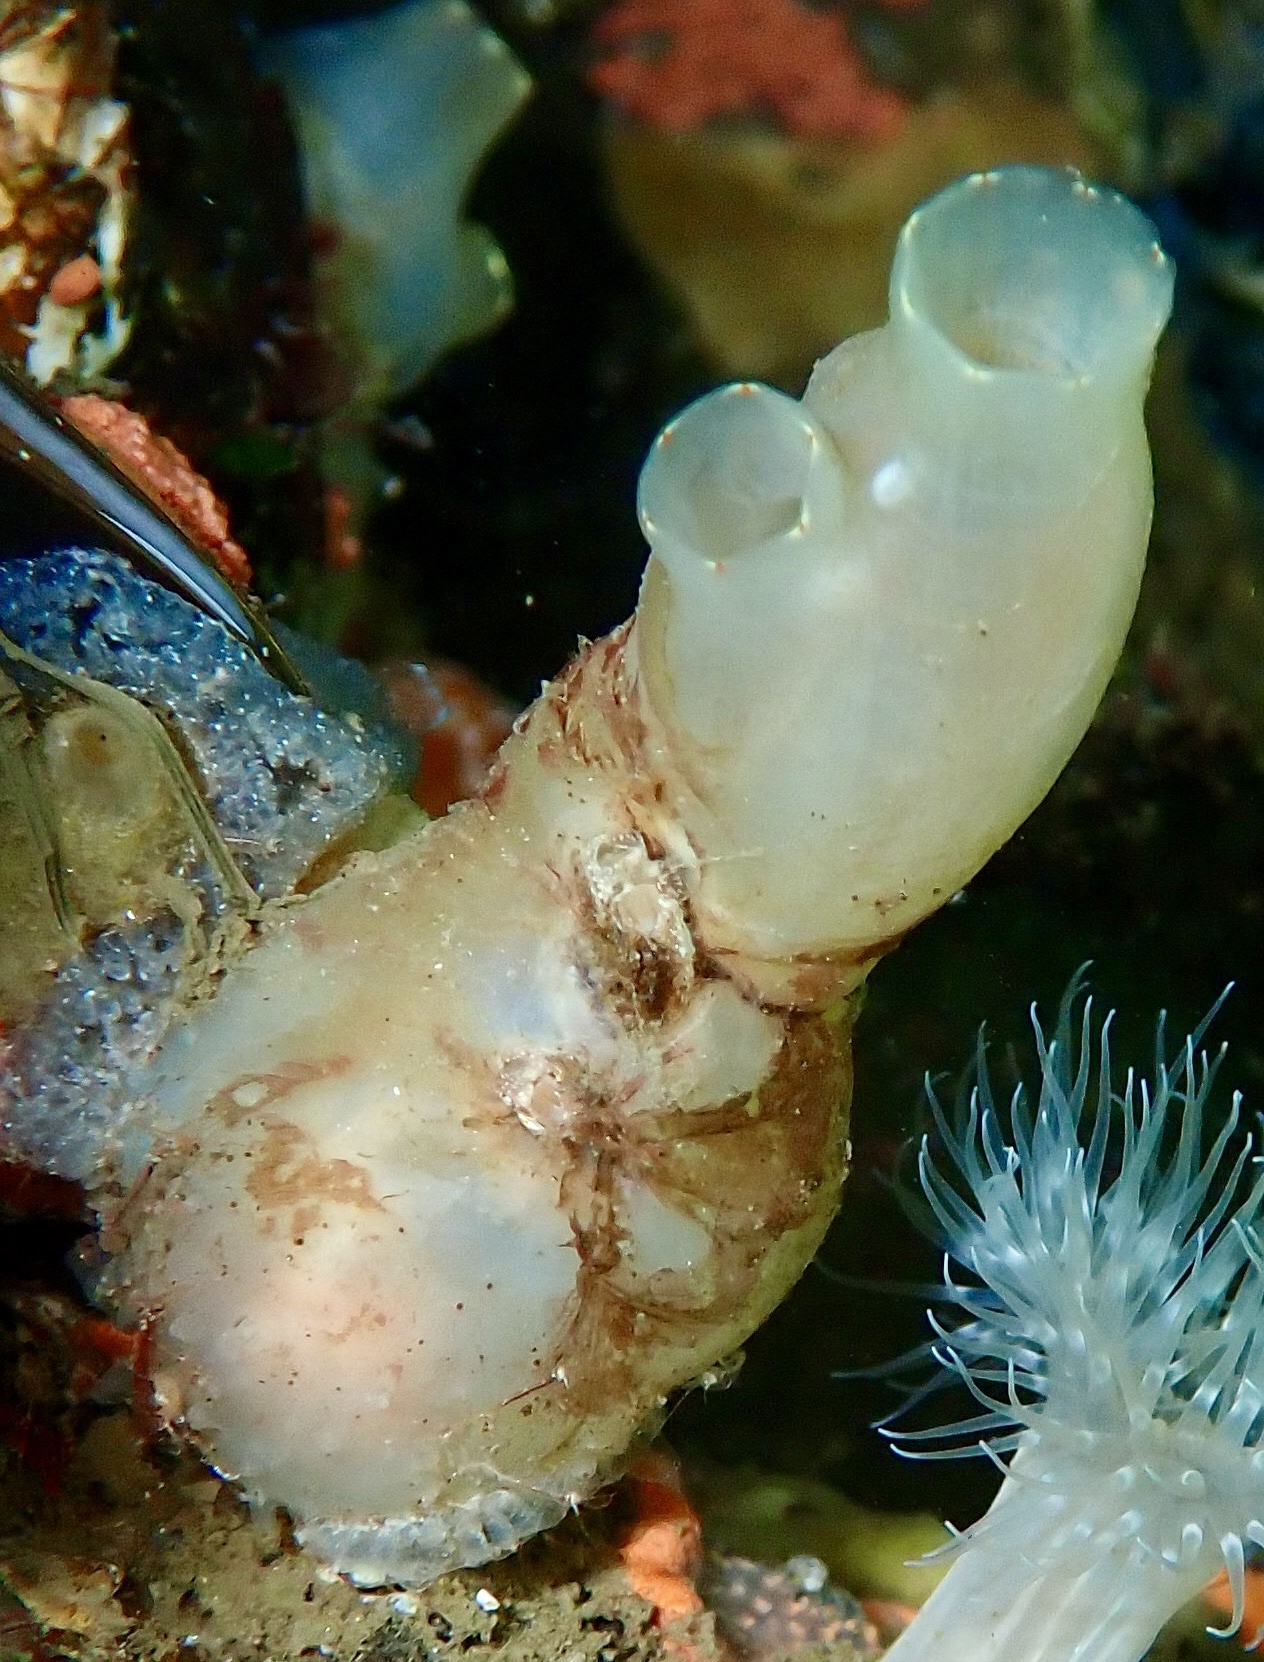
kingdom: Animalia
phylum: Chordata
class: Ascidiacea
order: Phlebobranchia
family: Cionidae
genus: Ciona
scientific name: Ciona intestinalis
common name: Vase tunicate
